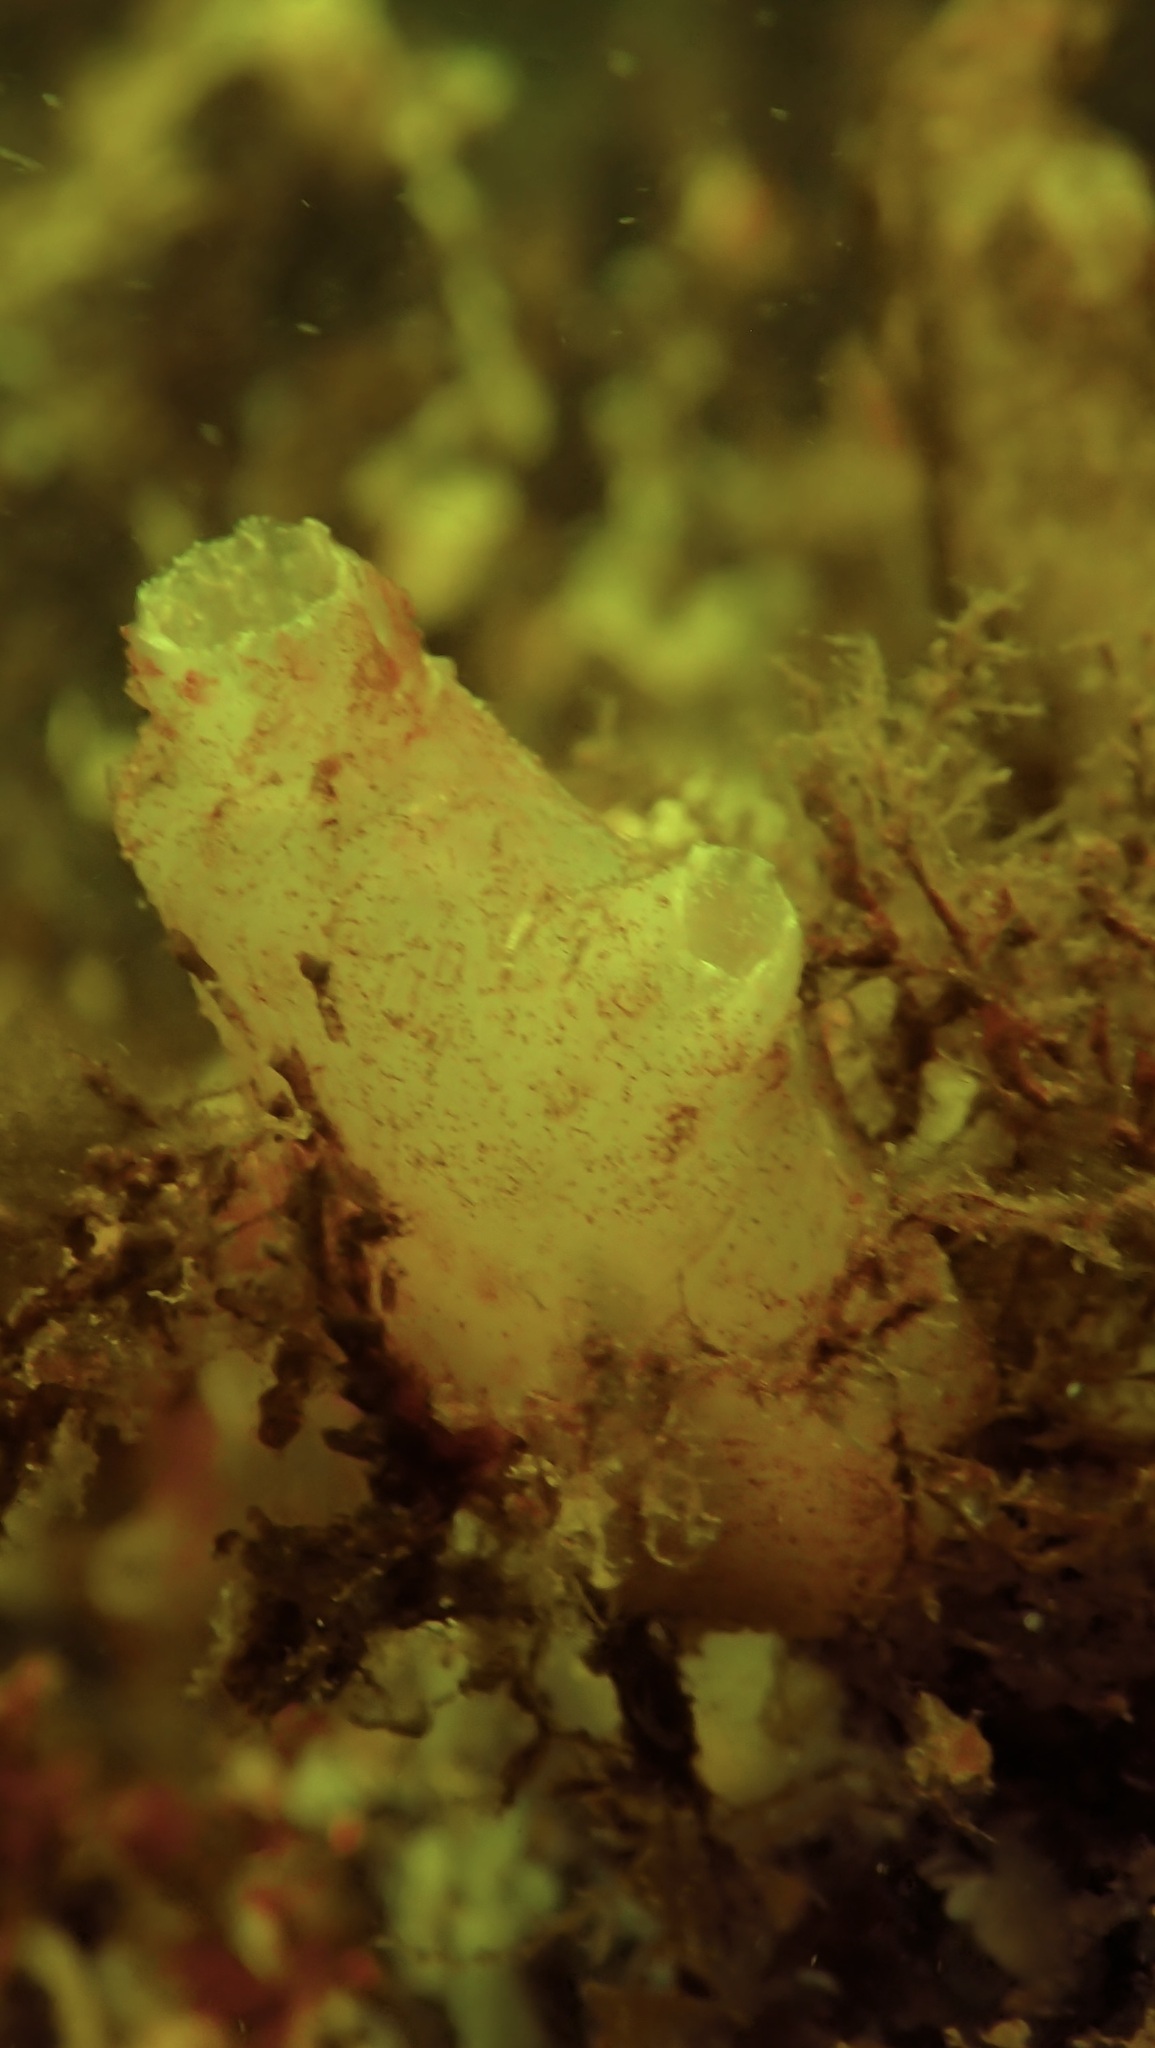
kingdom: Animalia
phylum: Chordata
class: Ascidiacea
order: Phlebobranchia
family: Ascidiidae
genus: Ascidiella
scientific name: Ascidiella aspersa
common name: Dirty sea-squirt
